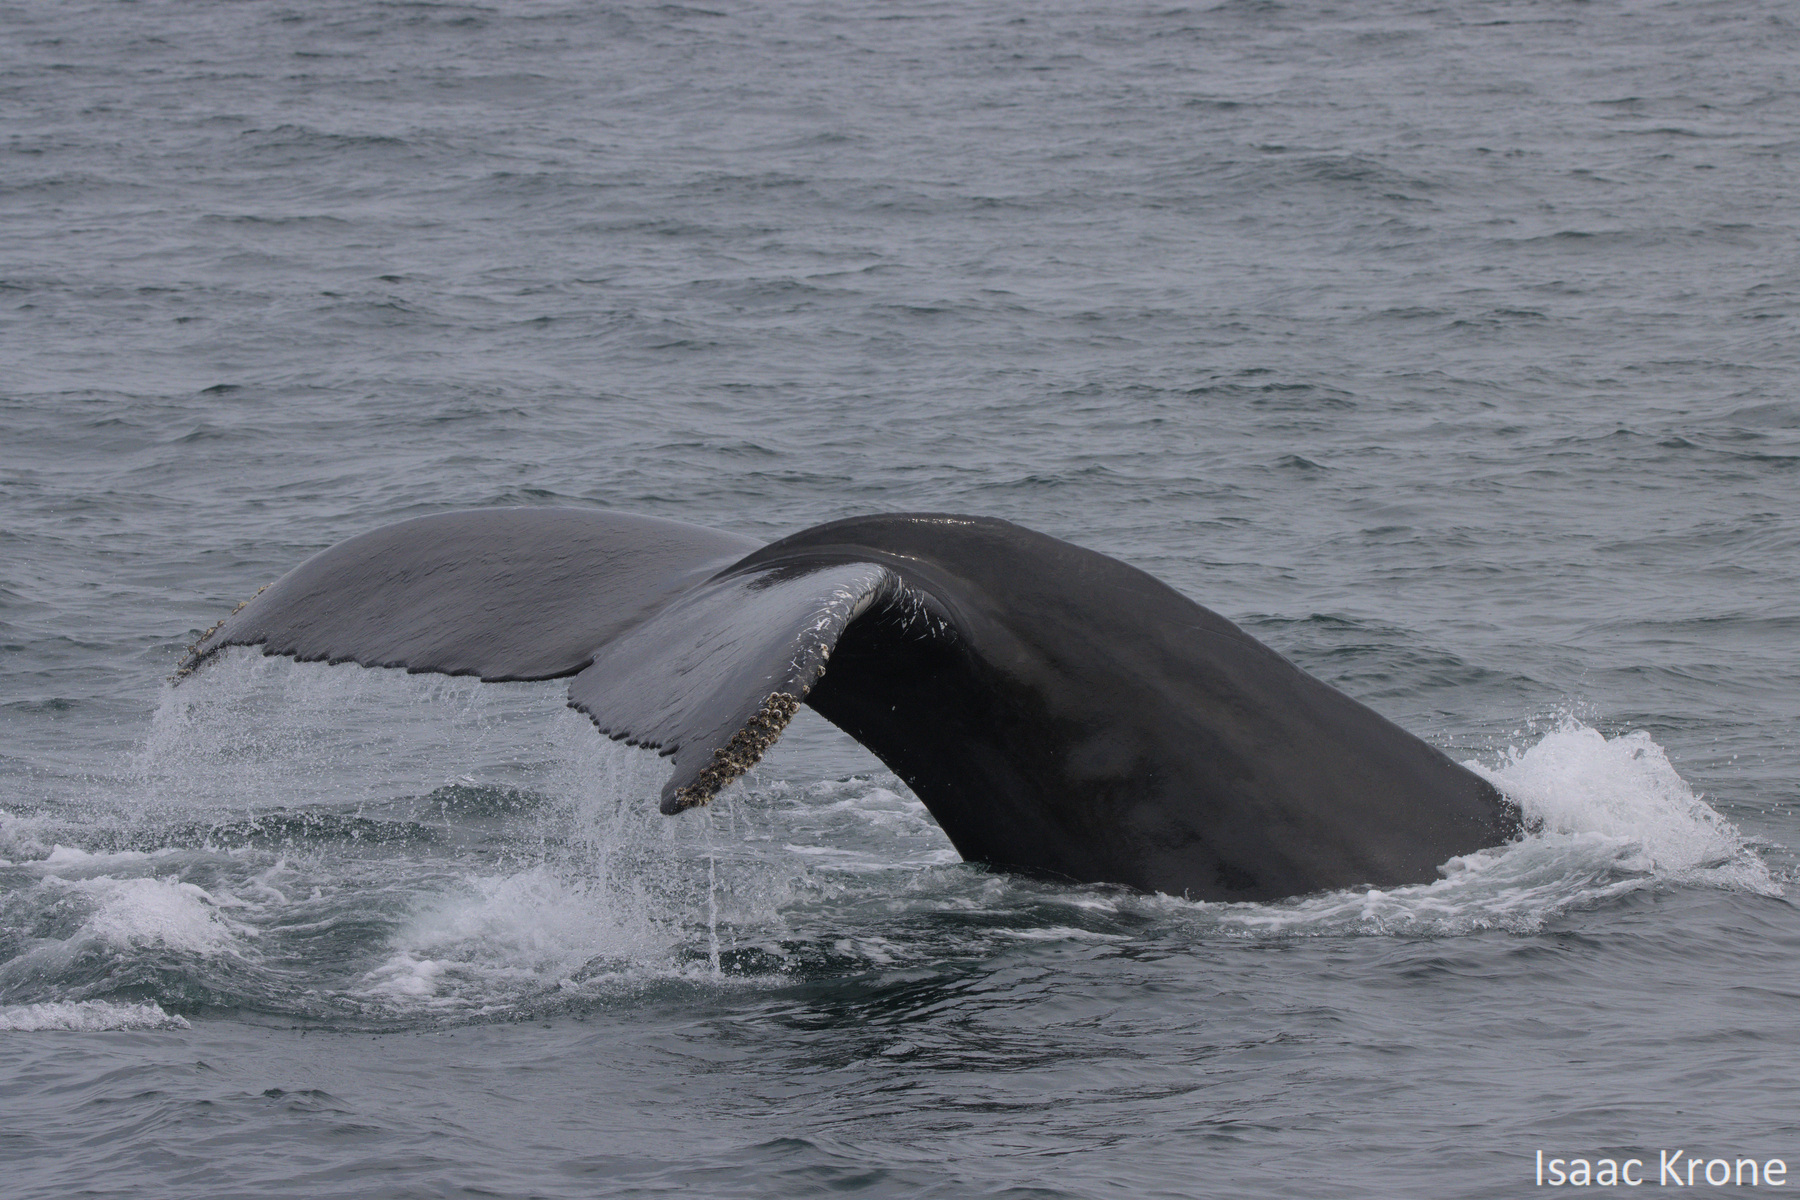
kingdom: Animalia
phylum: Chordata
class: Mammalia
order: Cetacea
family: Balaenopteridae
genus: Megaptera
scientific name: Megaptera novaeangliae
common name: Humpback whale
